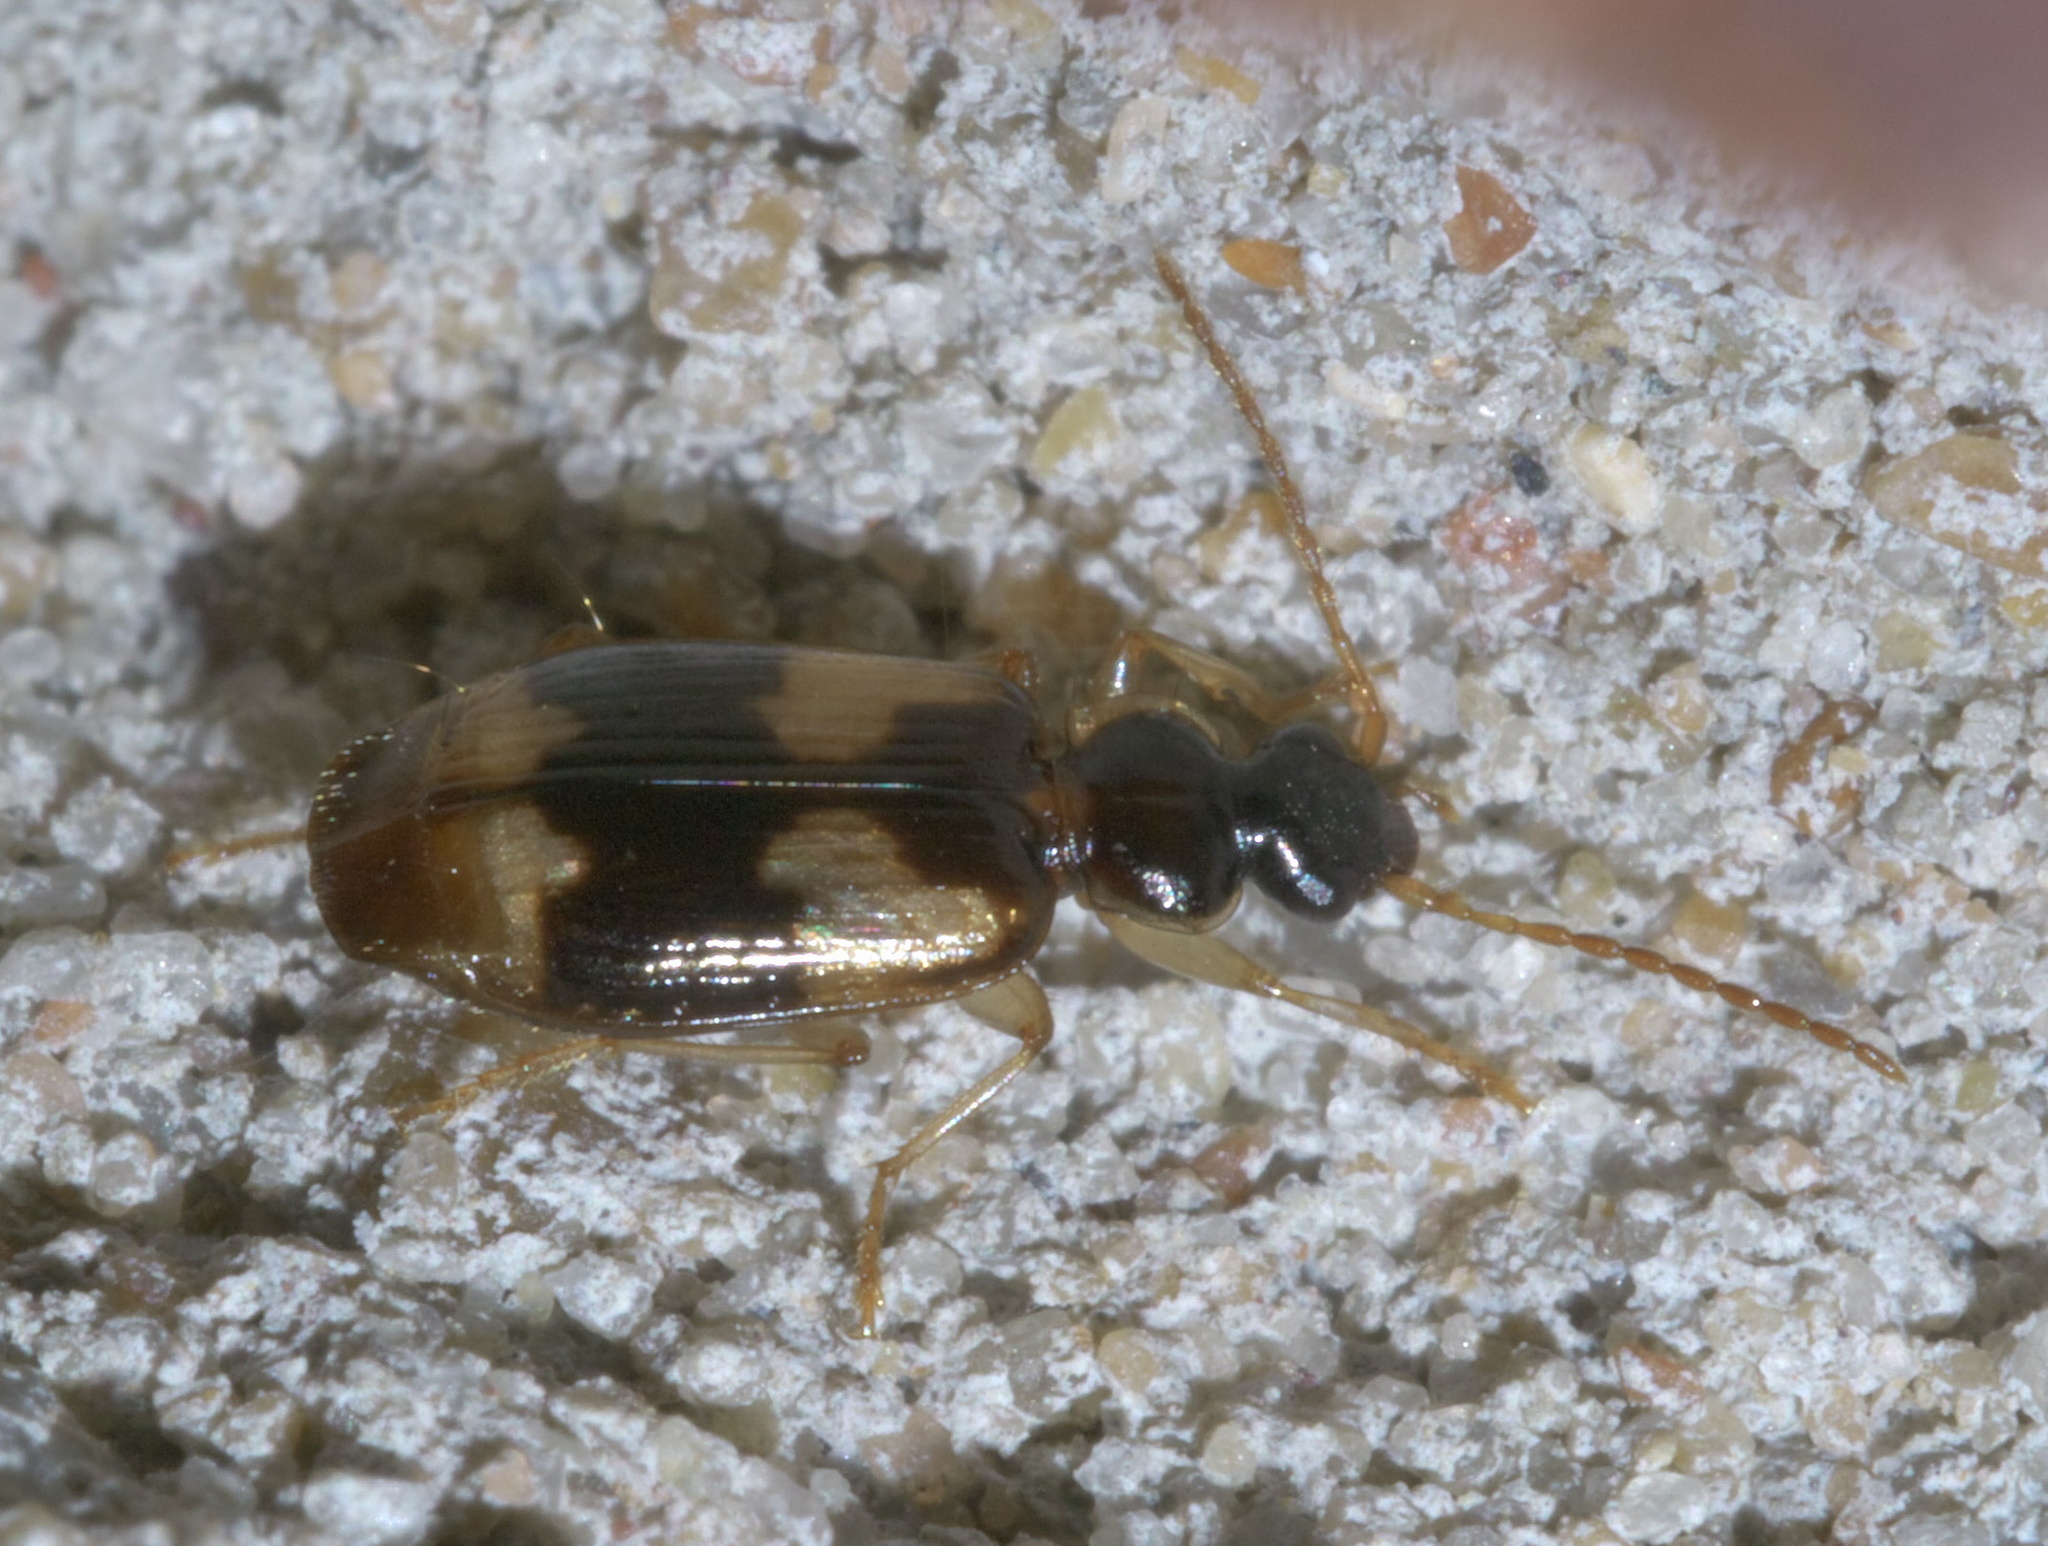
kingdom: Animalia
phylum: Arthropoda
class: Insecta
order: Coleoptera
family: Carabidae
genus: Lebia
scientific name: Lebia fuscata
